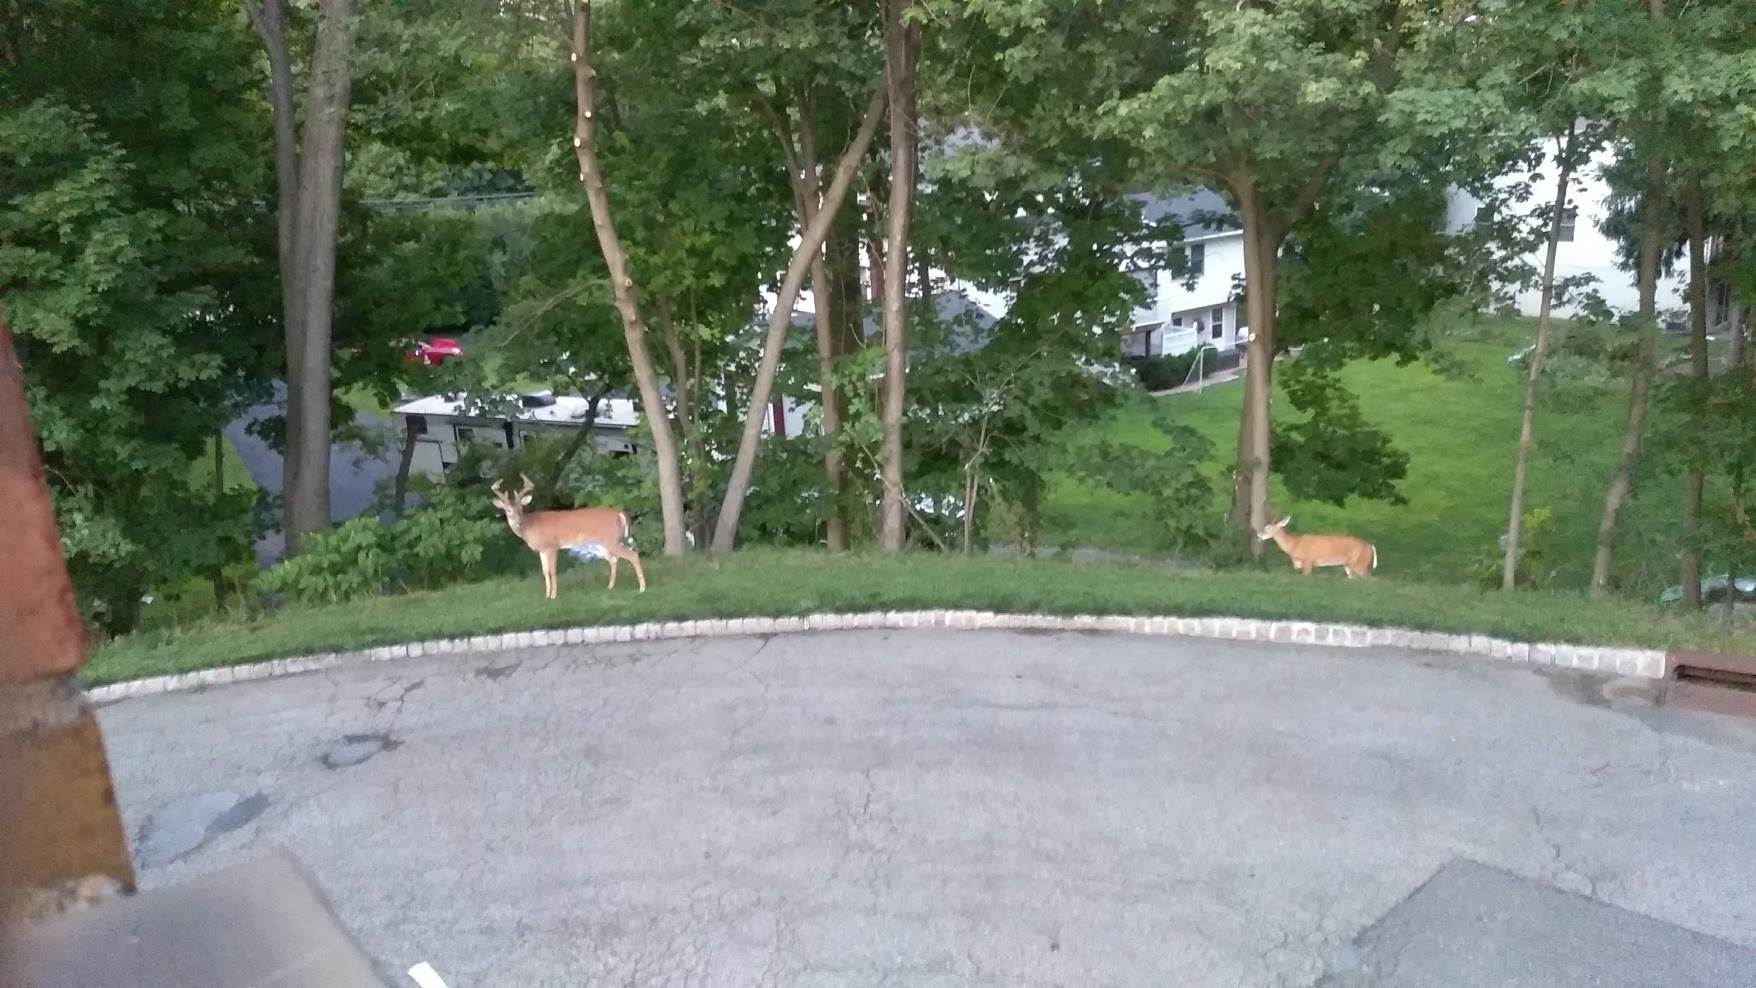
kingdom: Animalia
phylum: Chordata
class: Mammalia
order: Artiodactyla
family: Cervidae
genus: Odocoileus
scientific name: Odocoileus virginianus
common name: White-tailed deer
